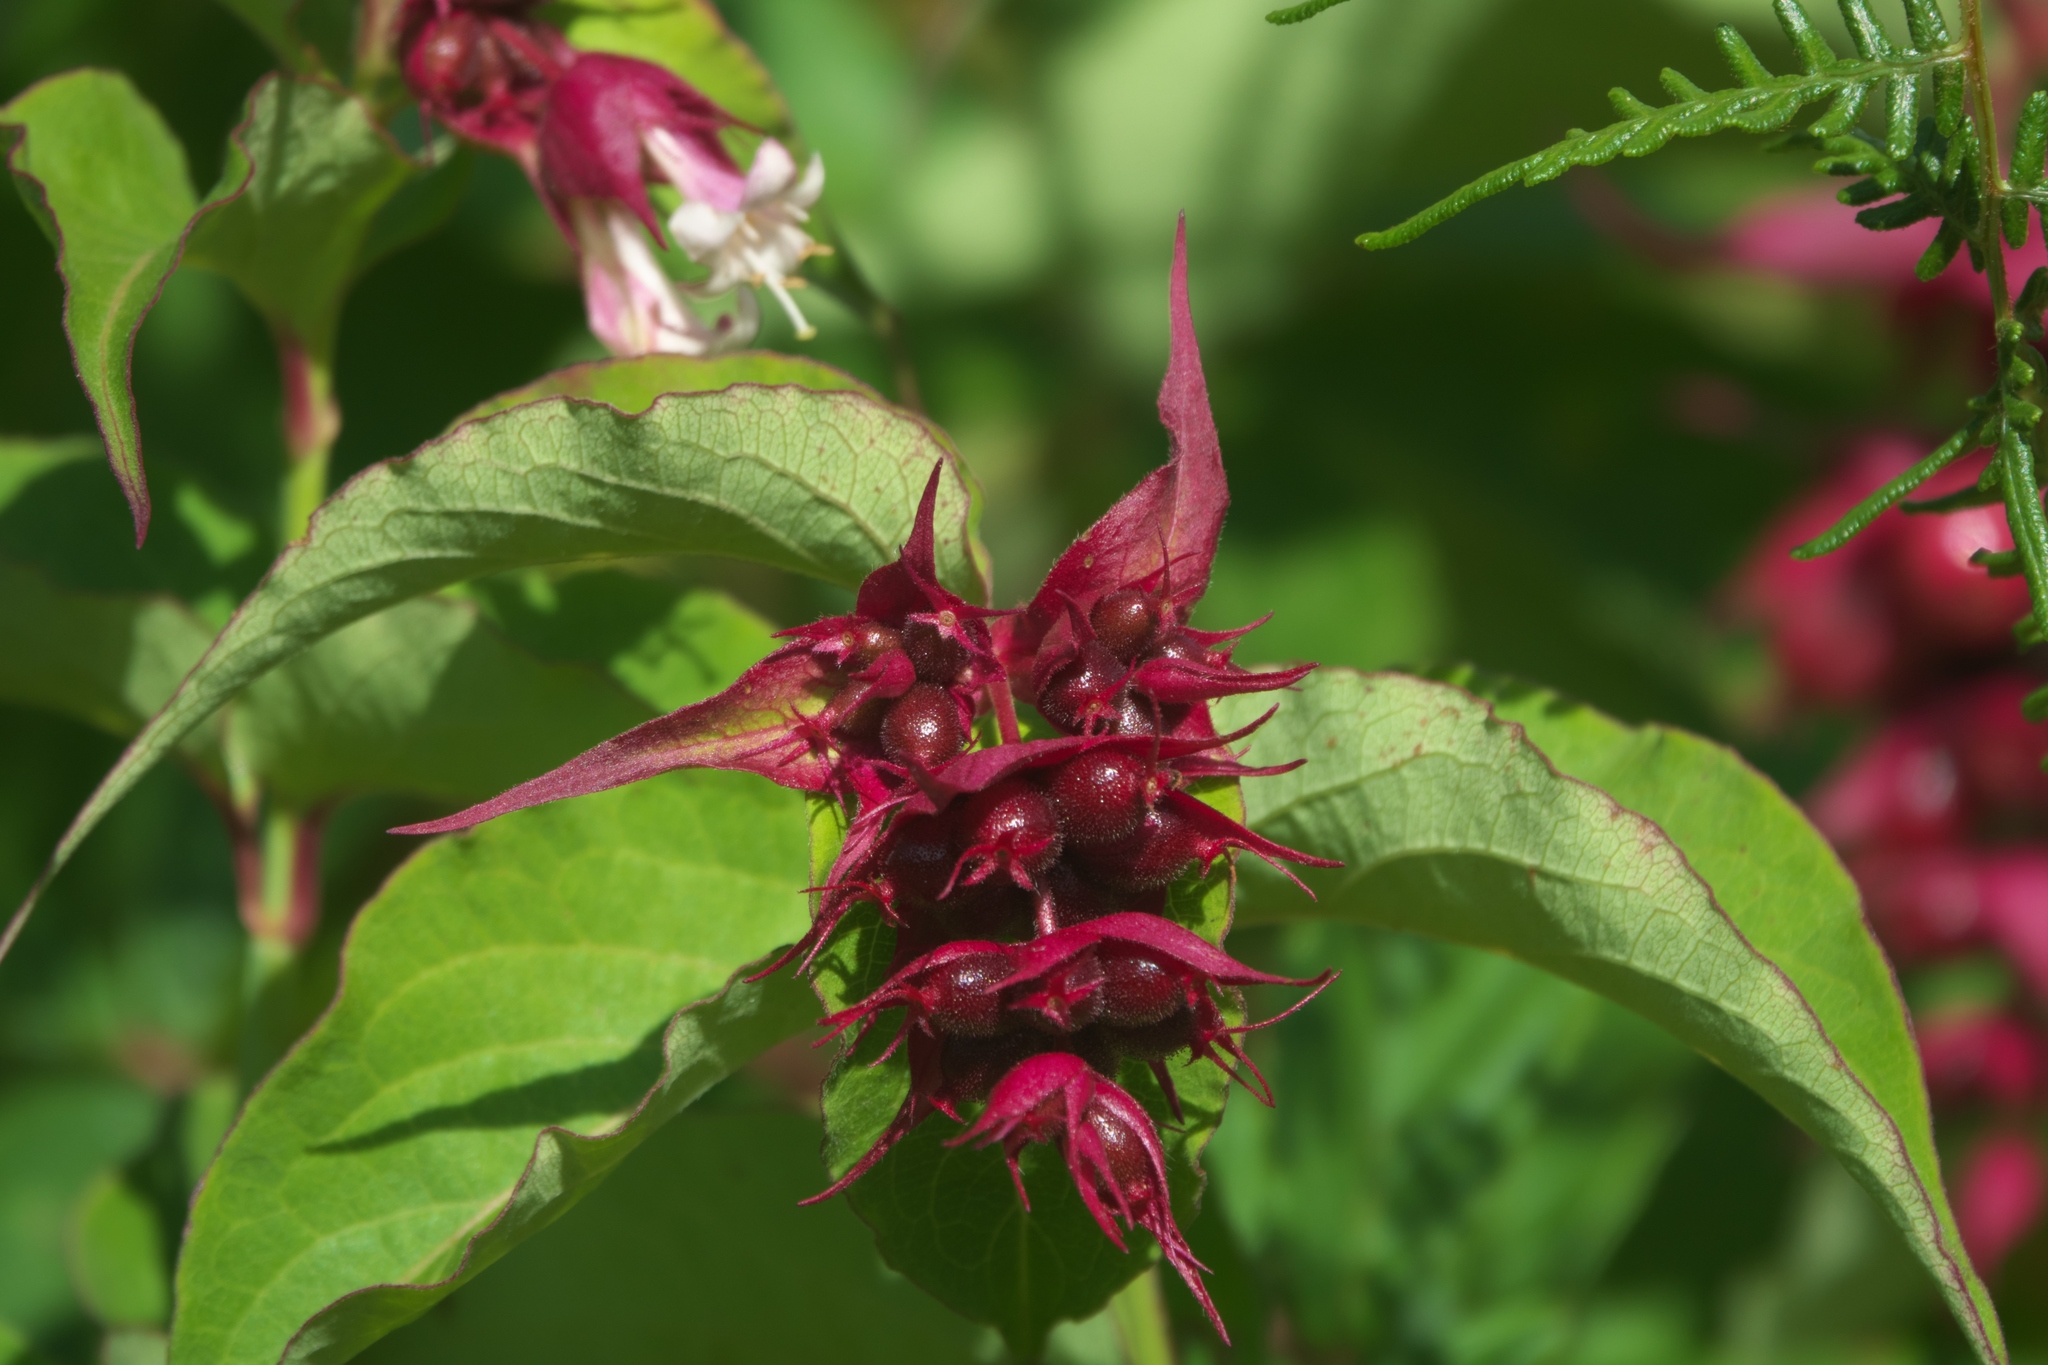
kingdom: Plantae
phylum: Tracheophyta
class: Magnoliopsida
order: Dipsacales
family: Caprifoliaceae
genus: Leycesteria
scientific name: Leycesteria formosa
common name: Himalayan honeysuckle
